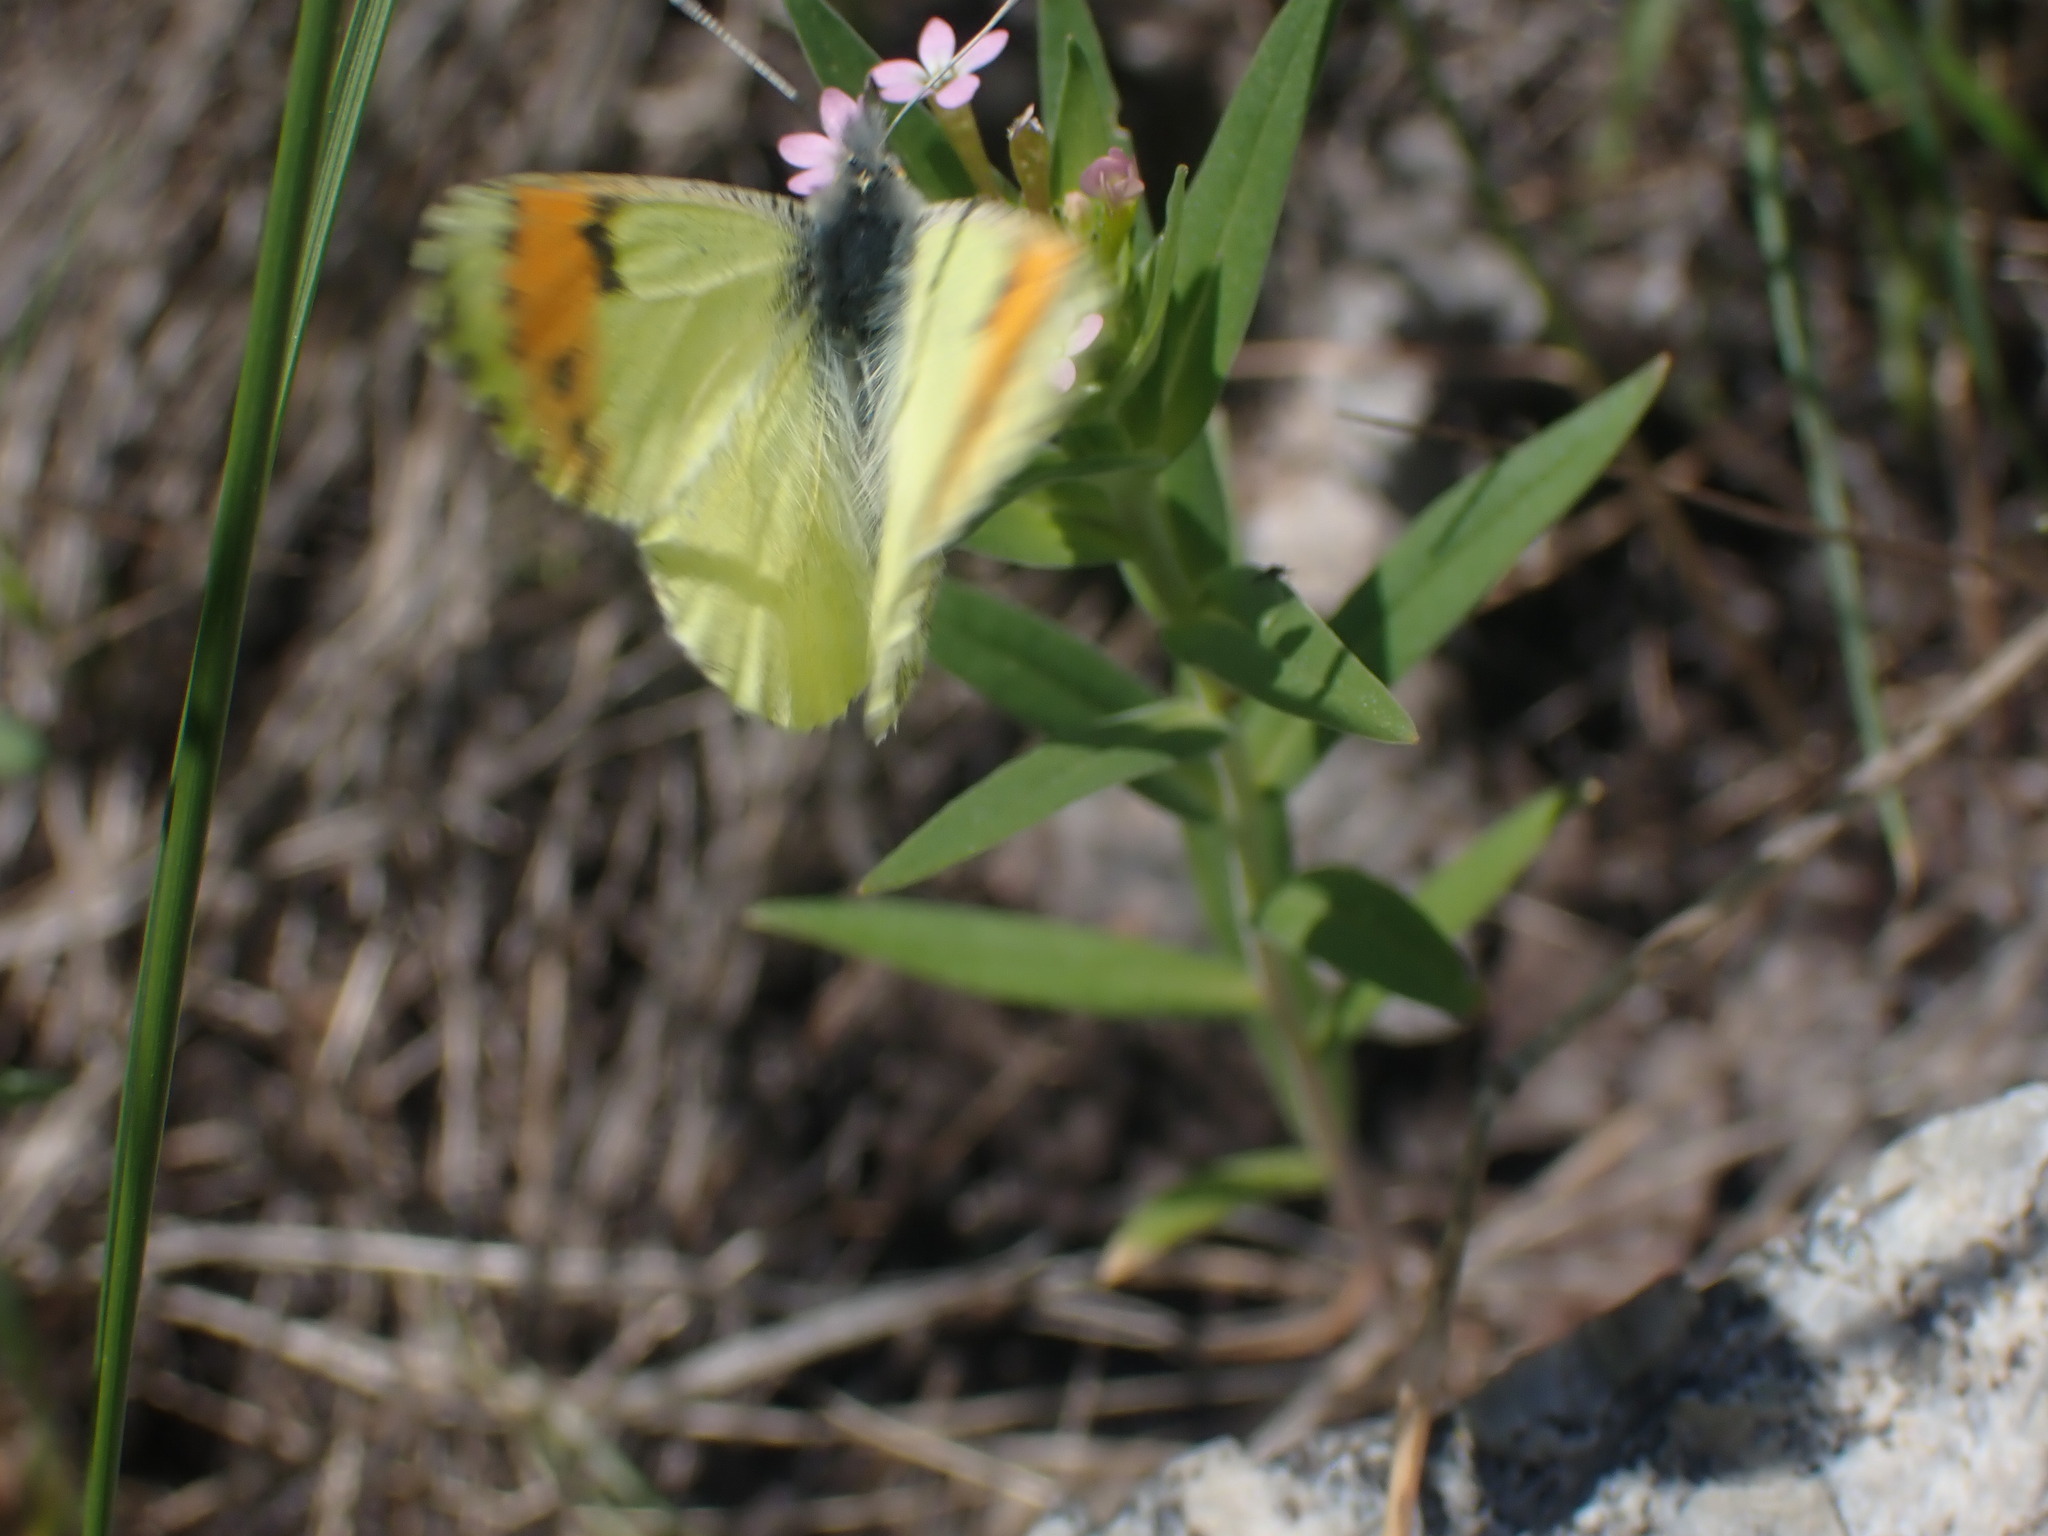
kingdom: Animalia
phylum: Arthropoda
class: Insecta
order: Lepidoptera
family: Pieridae
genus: Anthocharis
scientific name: Anthocharis julia
